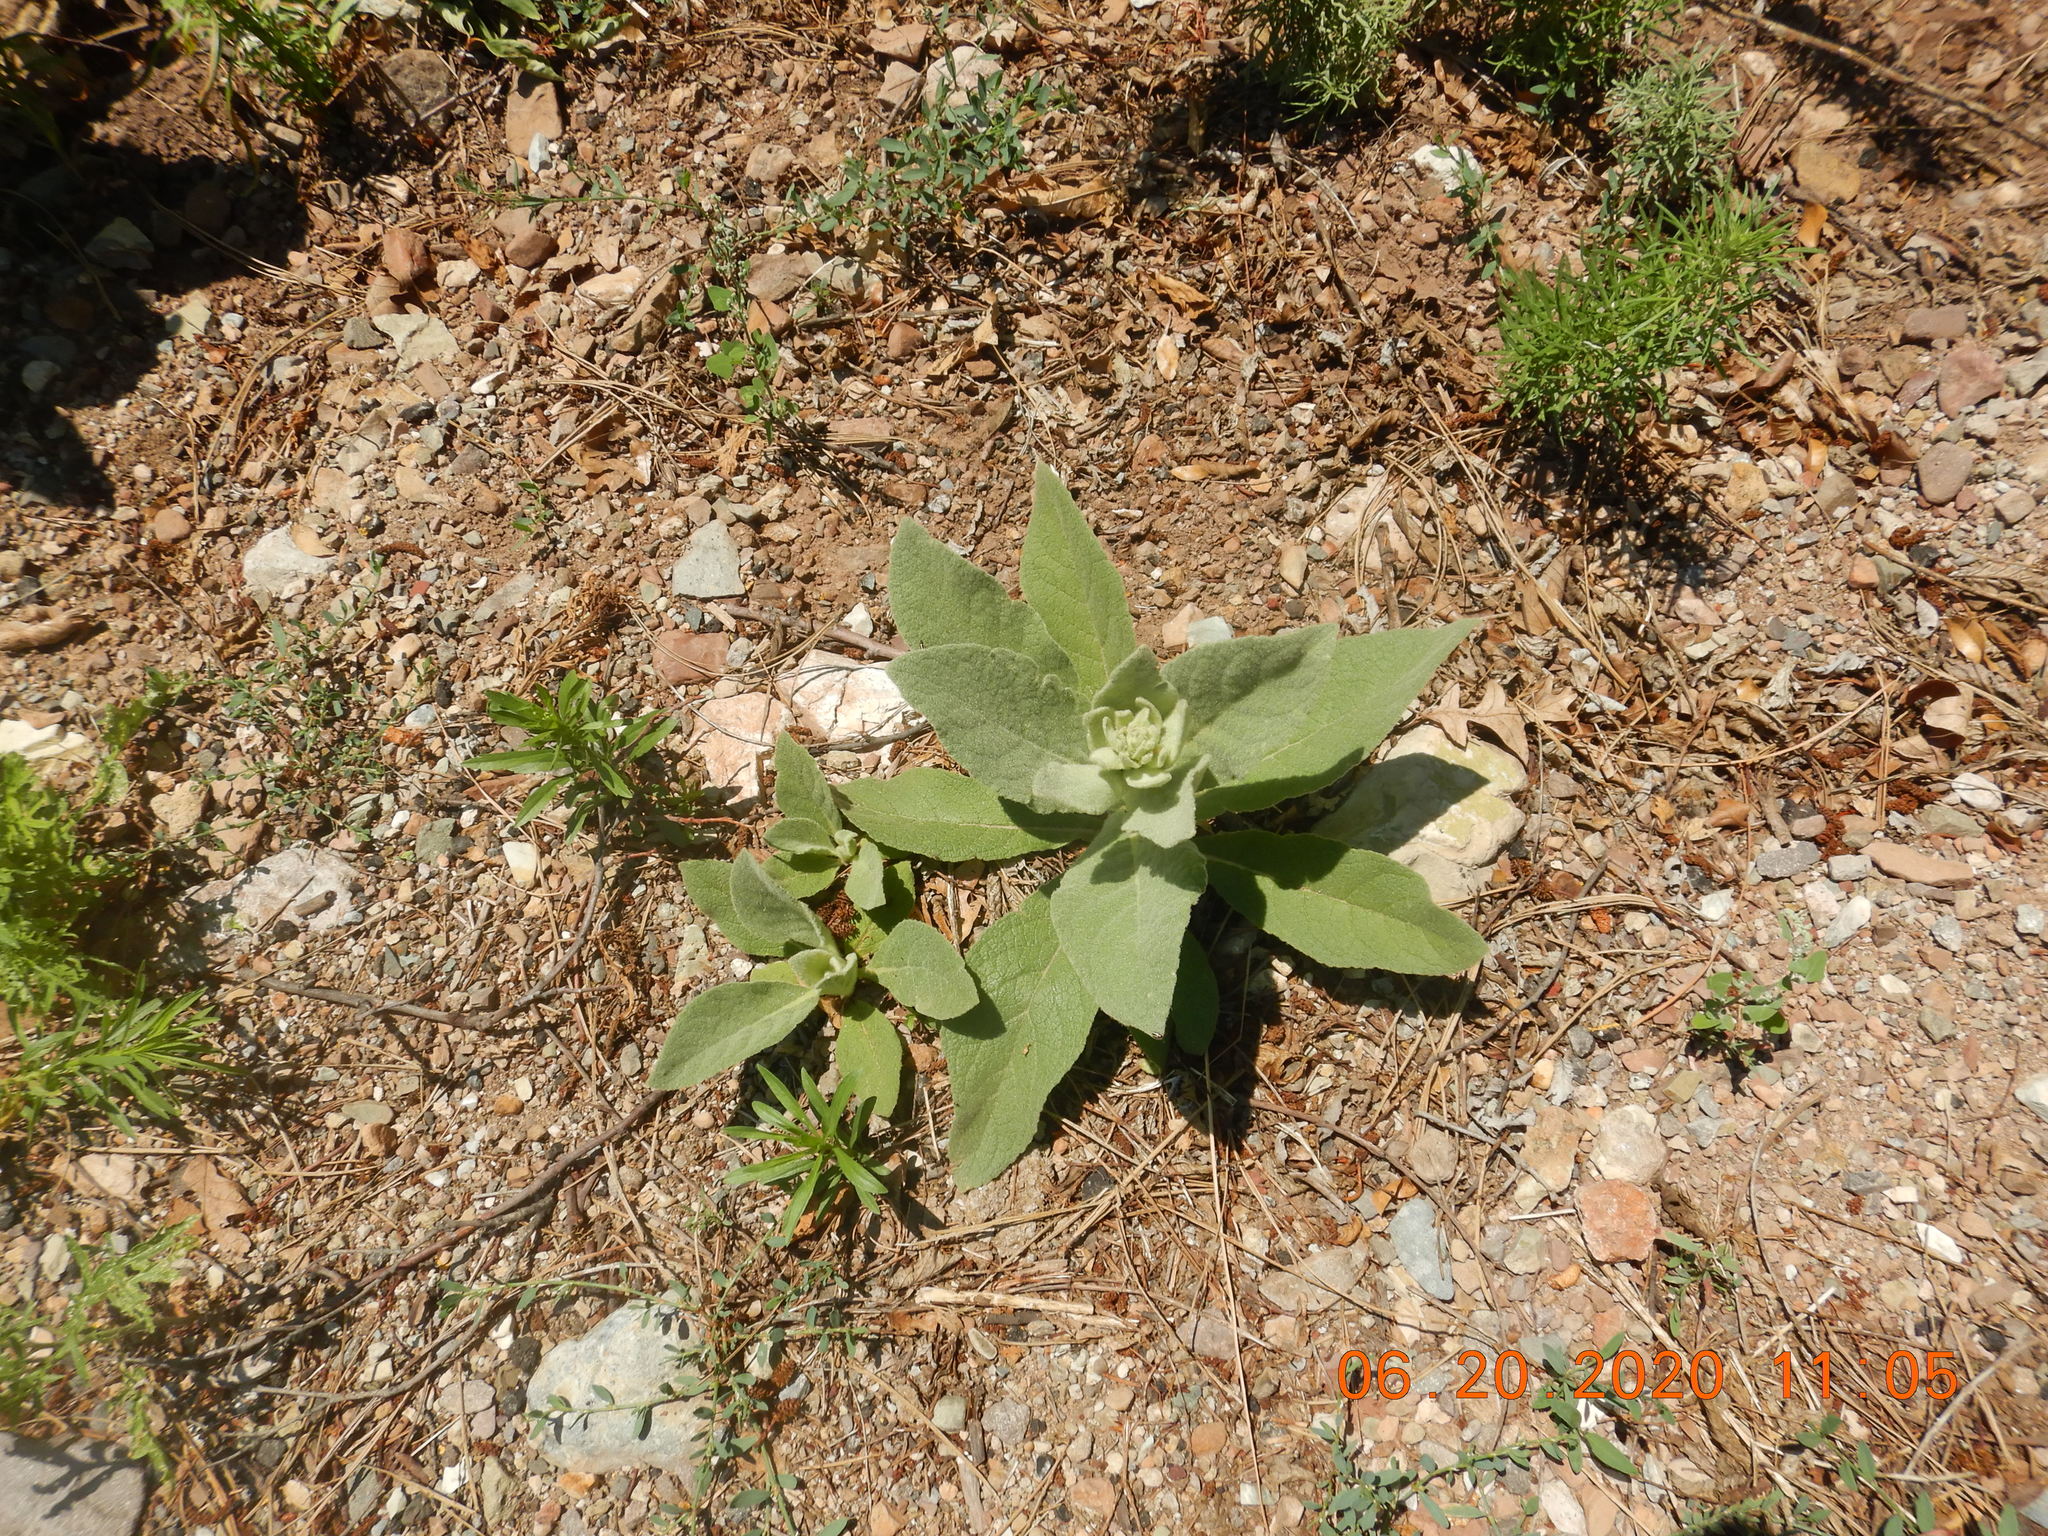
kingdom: Plantae
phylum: Tracheophyta
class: Magnoliopsida
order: Lamiales
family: Scrophulariaceae
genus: Verbascum
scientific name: Verbascum thapsus
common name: Common mullein
